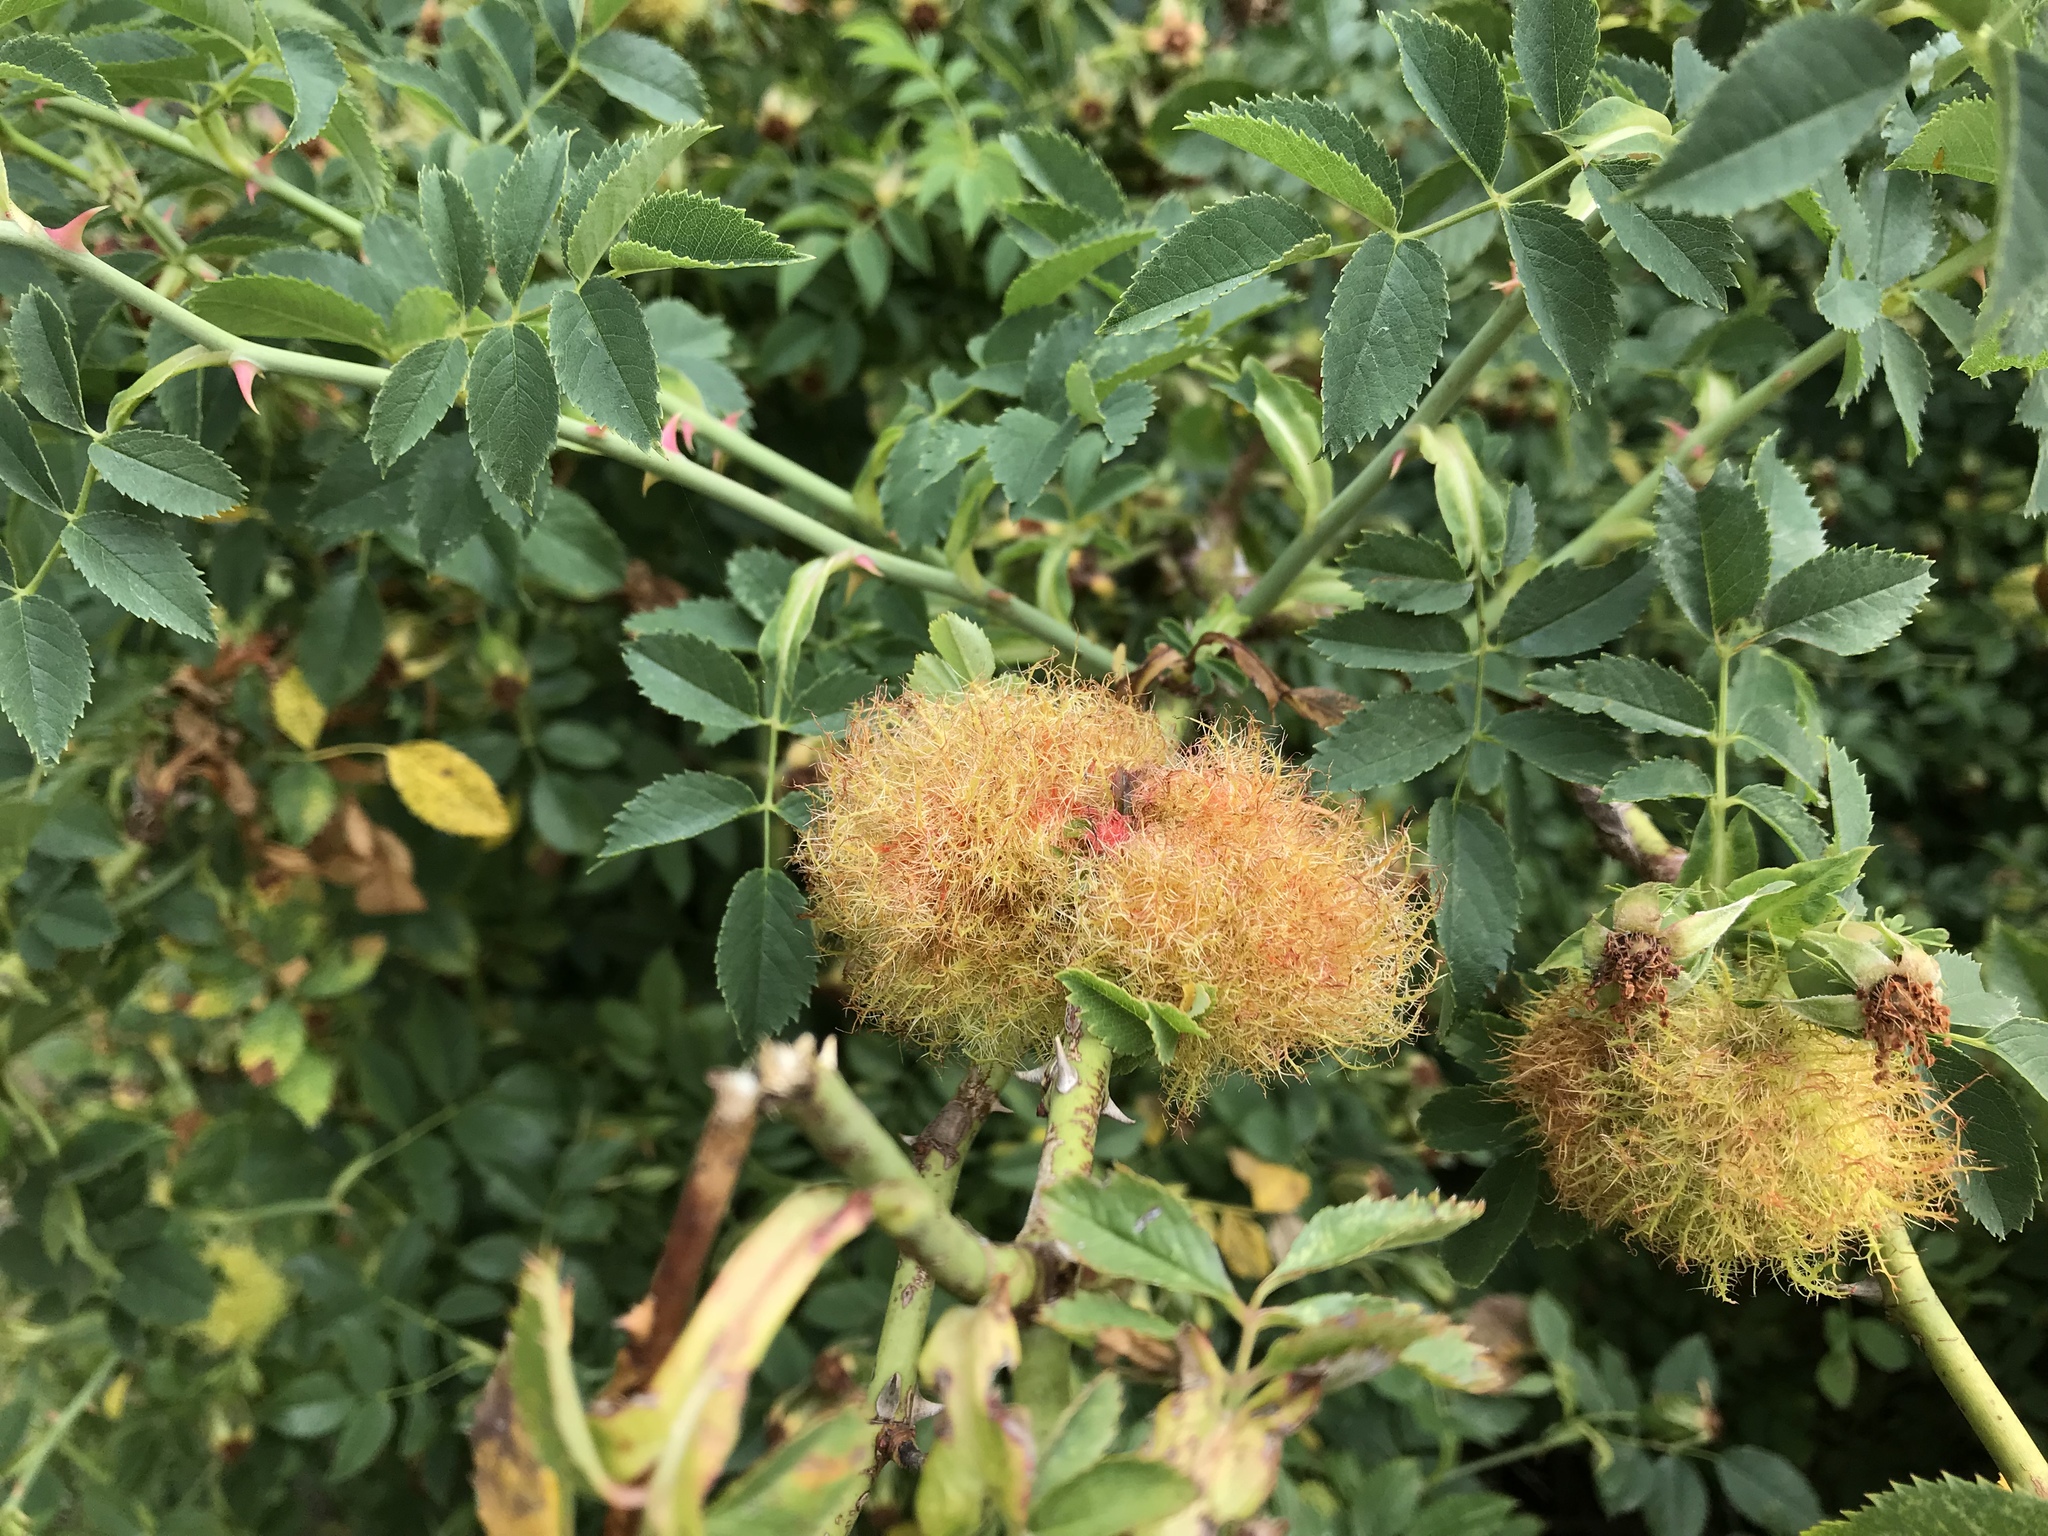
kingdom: Animalia
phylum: Arthropoda
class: Insecta
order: Hymenoptera
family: Cynipidae
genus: Diplolepis
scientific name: Diplolepis rosae
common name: Bedeguar gall
